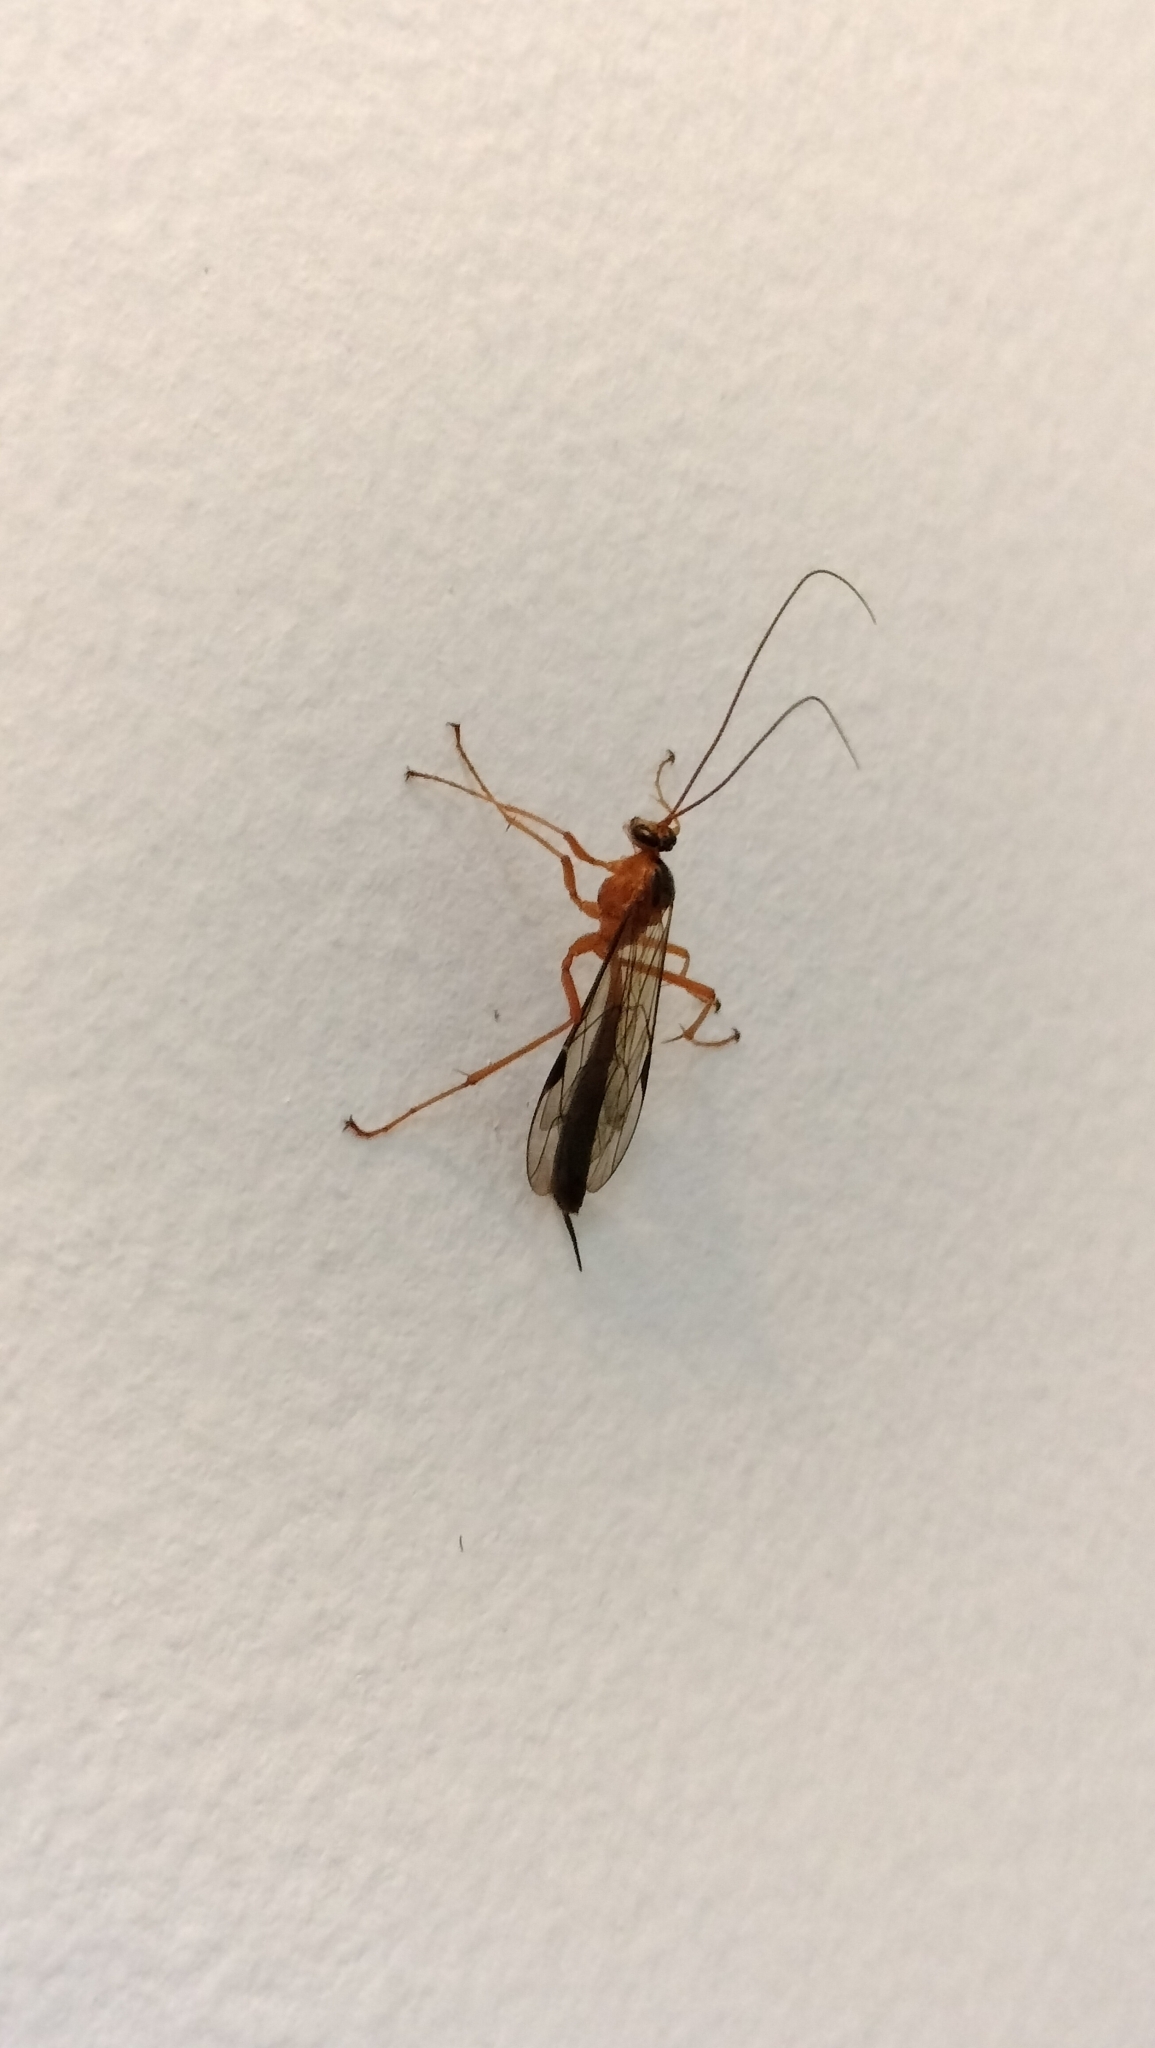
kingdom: Animalia
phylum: Arthropoda
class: Insecta
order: Hymenoptera
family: Ichneumonidae
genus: Netelia
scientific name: Netelia ephippiata
